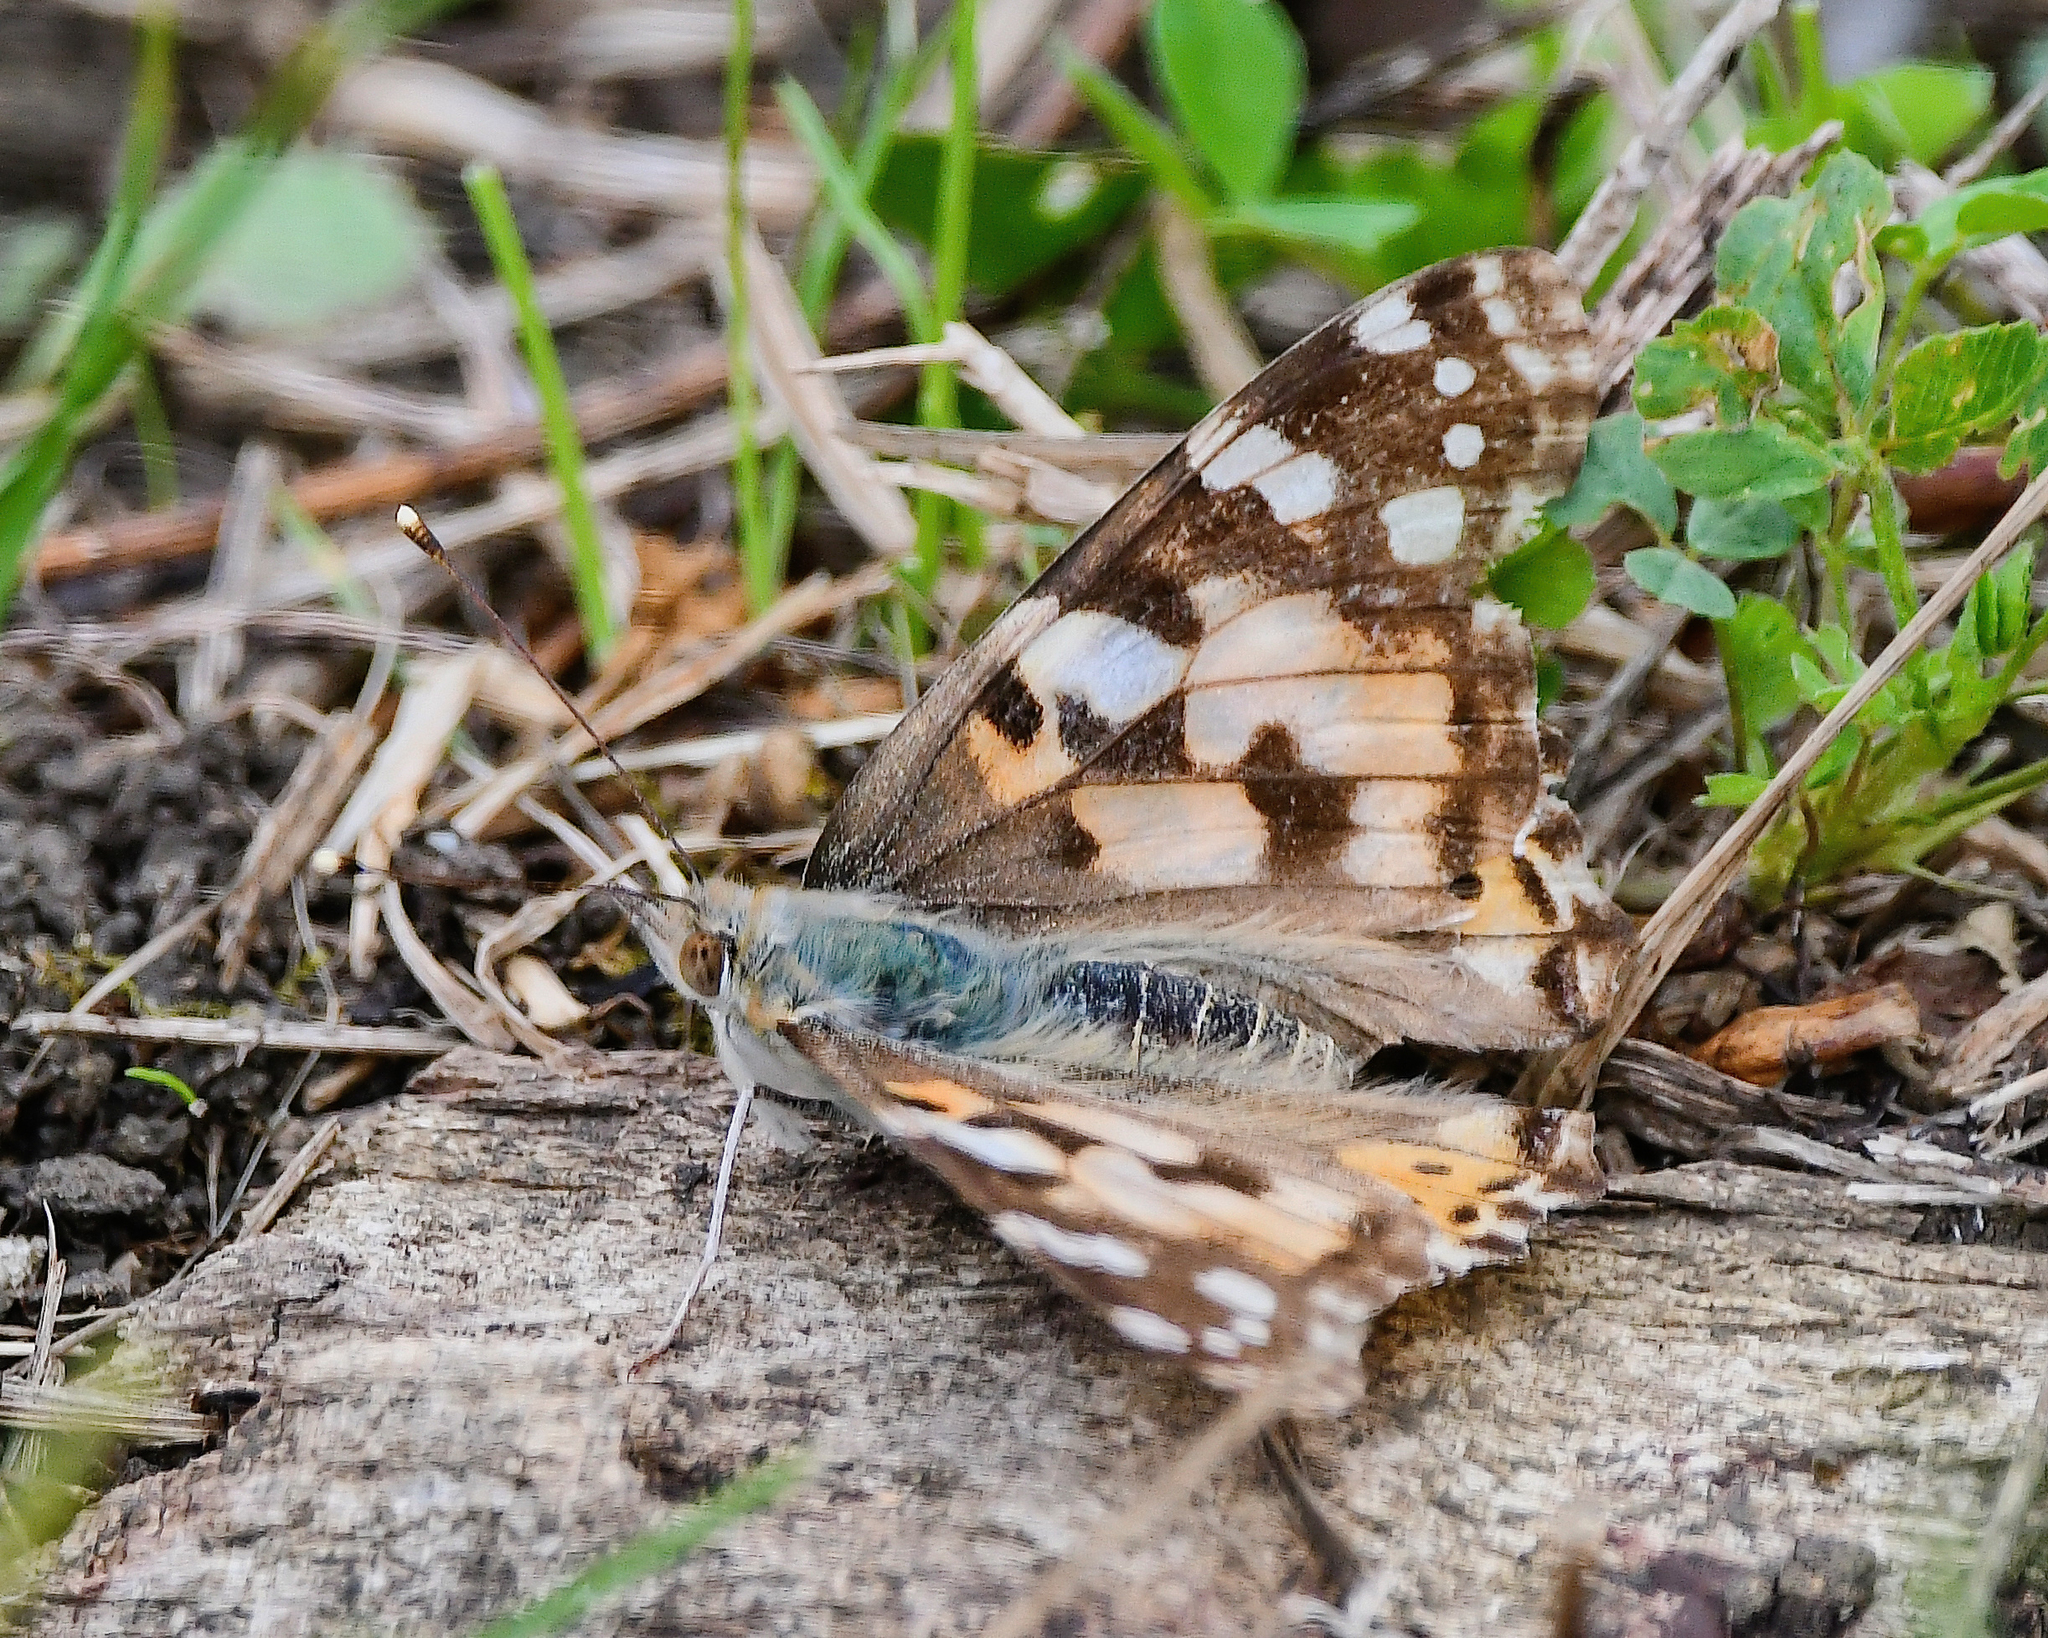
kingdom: Animalia
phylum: Arthropoda
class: Insecta
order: Lepidoptera
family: Nymphalidae
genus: Vanessa
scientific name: Vanessa cardui
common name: Painted lady
